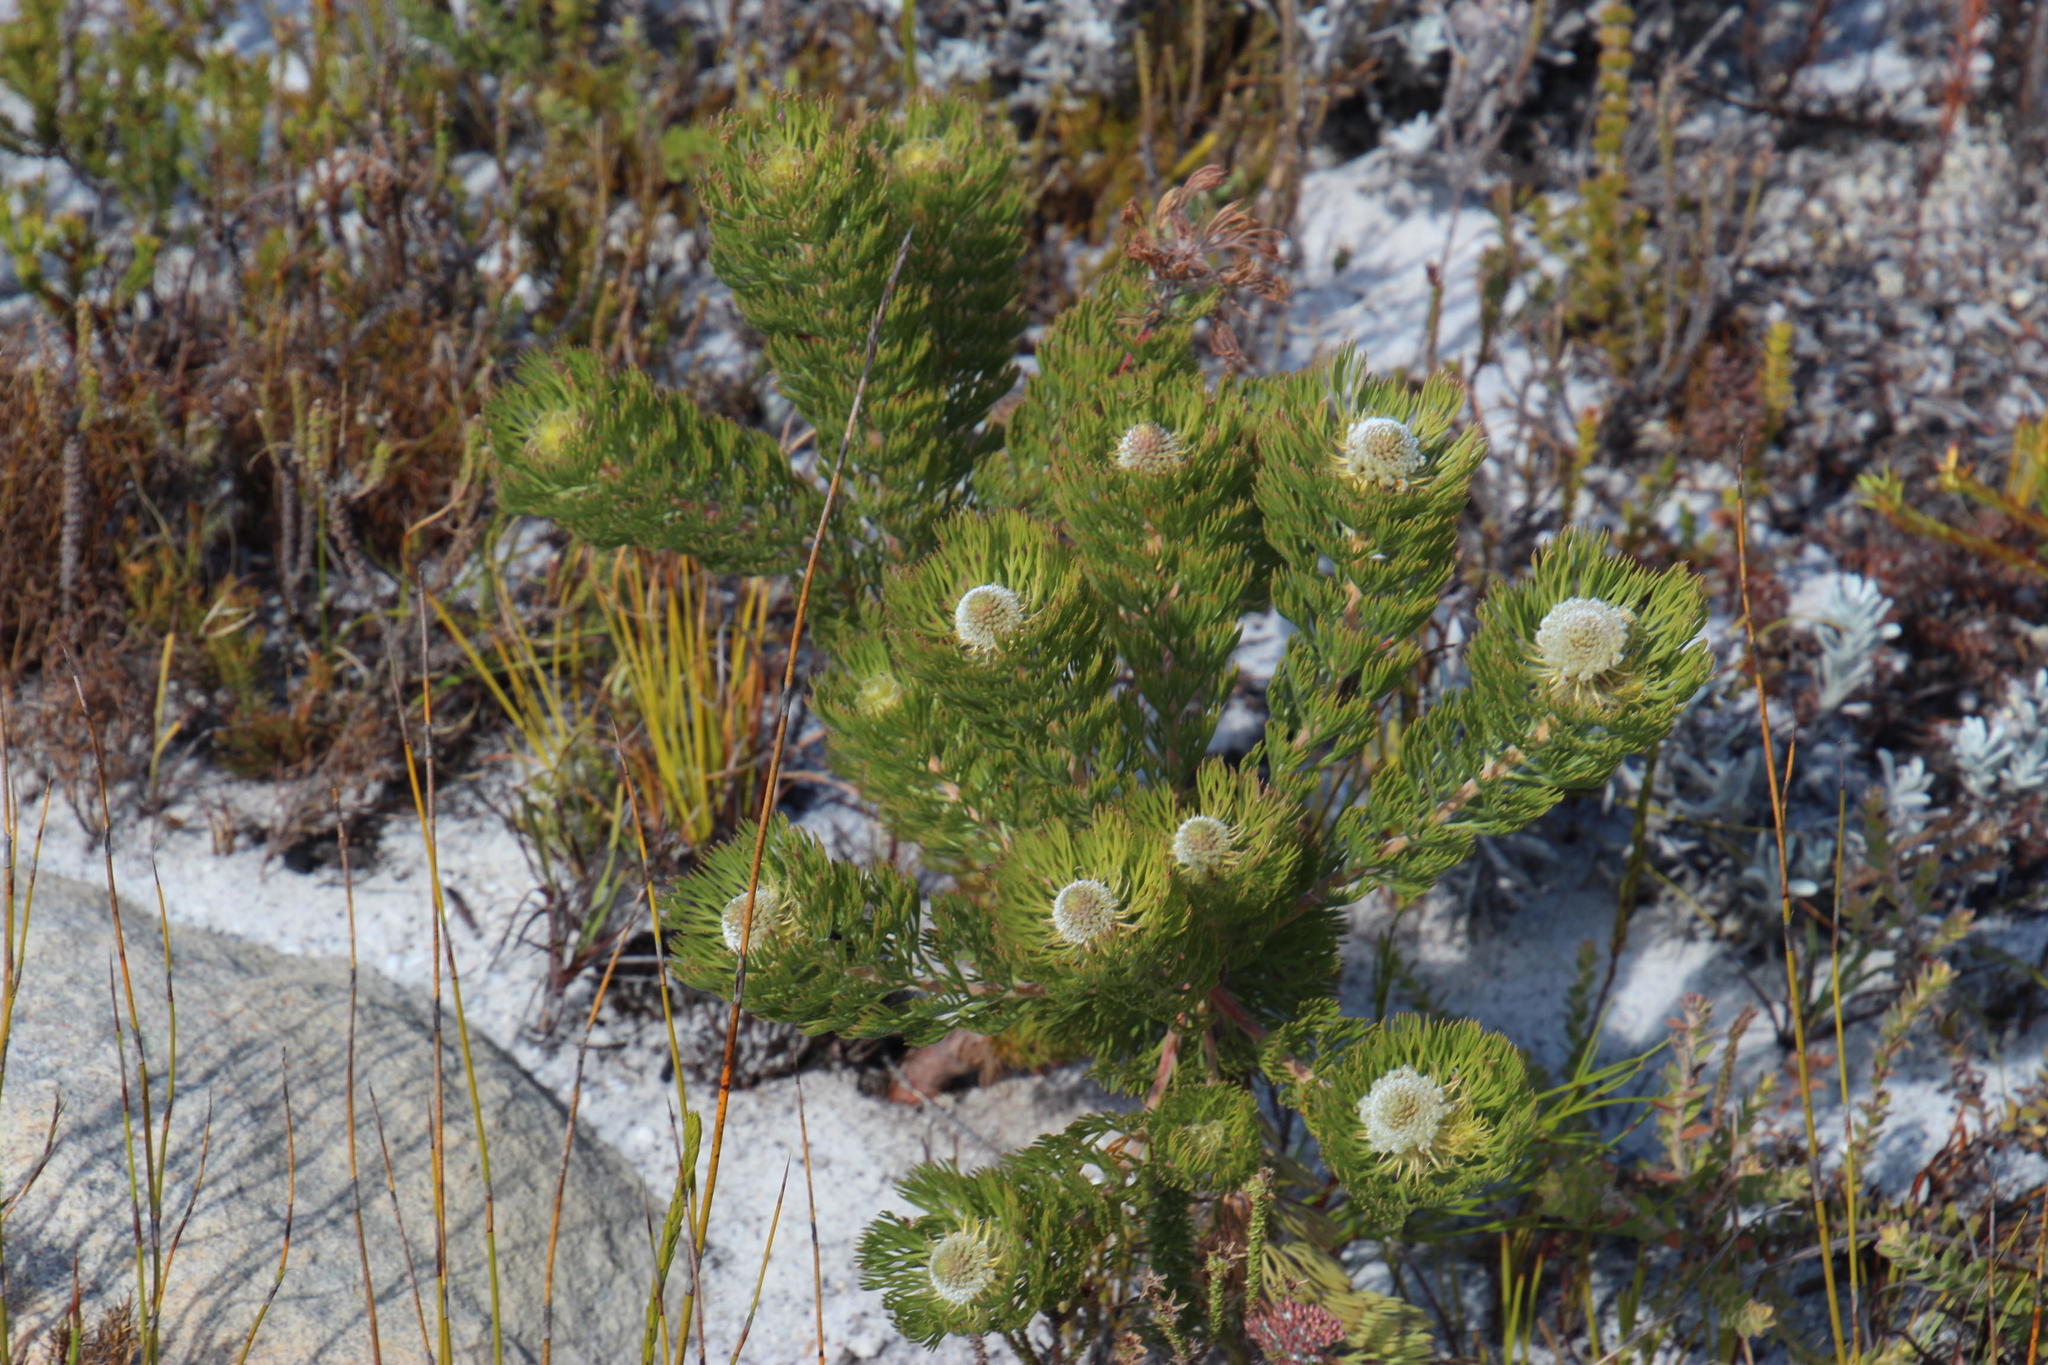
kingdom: Plantae
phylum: Tracheophyta
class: Magnoliopsida
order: Proteales
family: Proteaceae
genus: Serruria
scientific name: Serruria villosa
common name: Golden spiderhead
